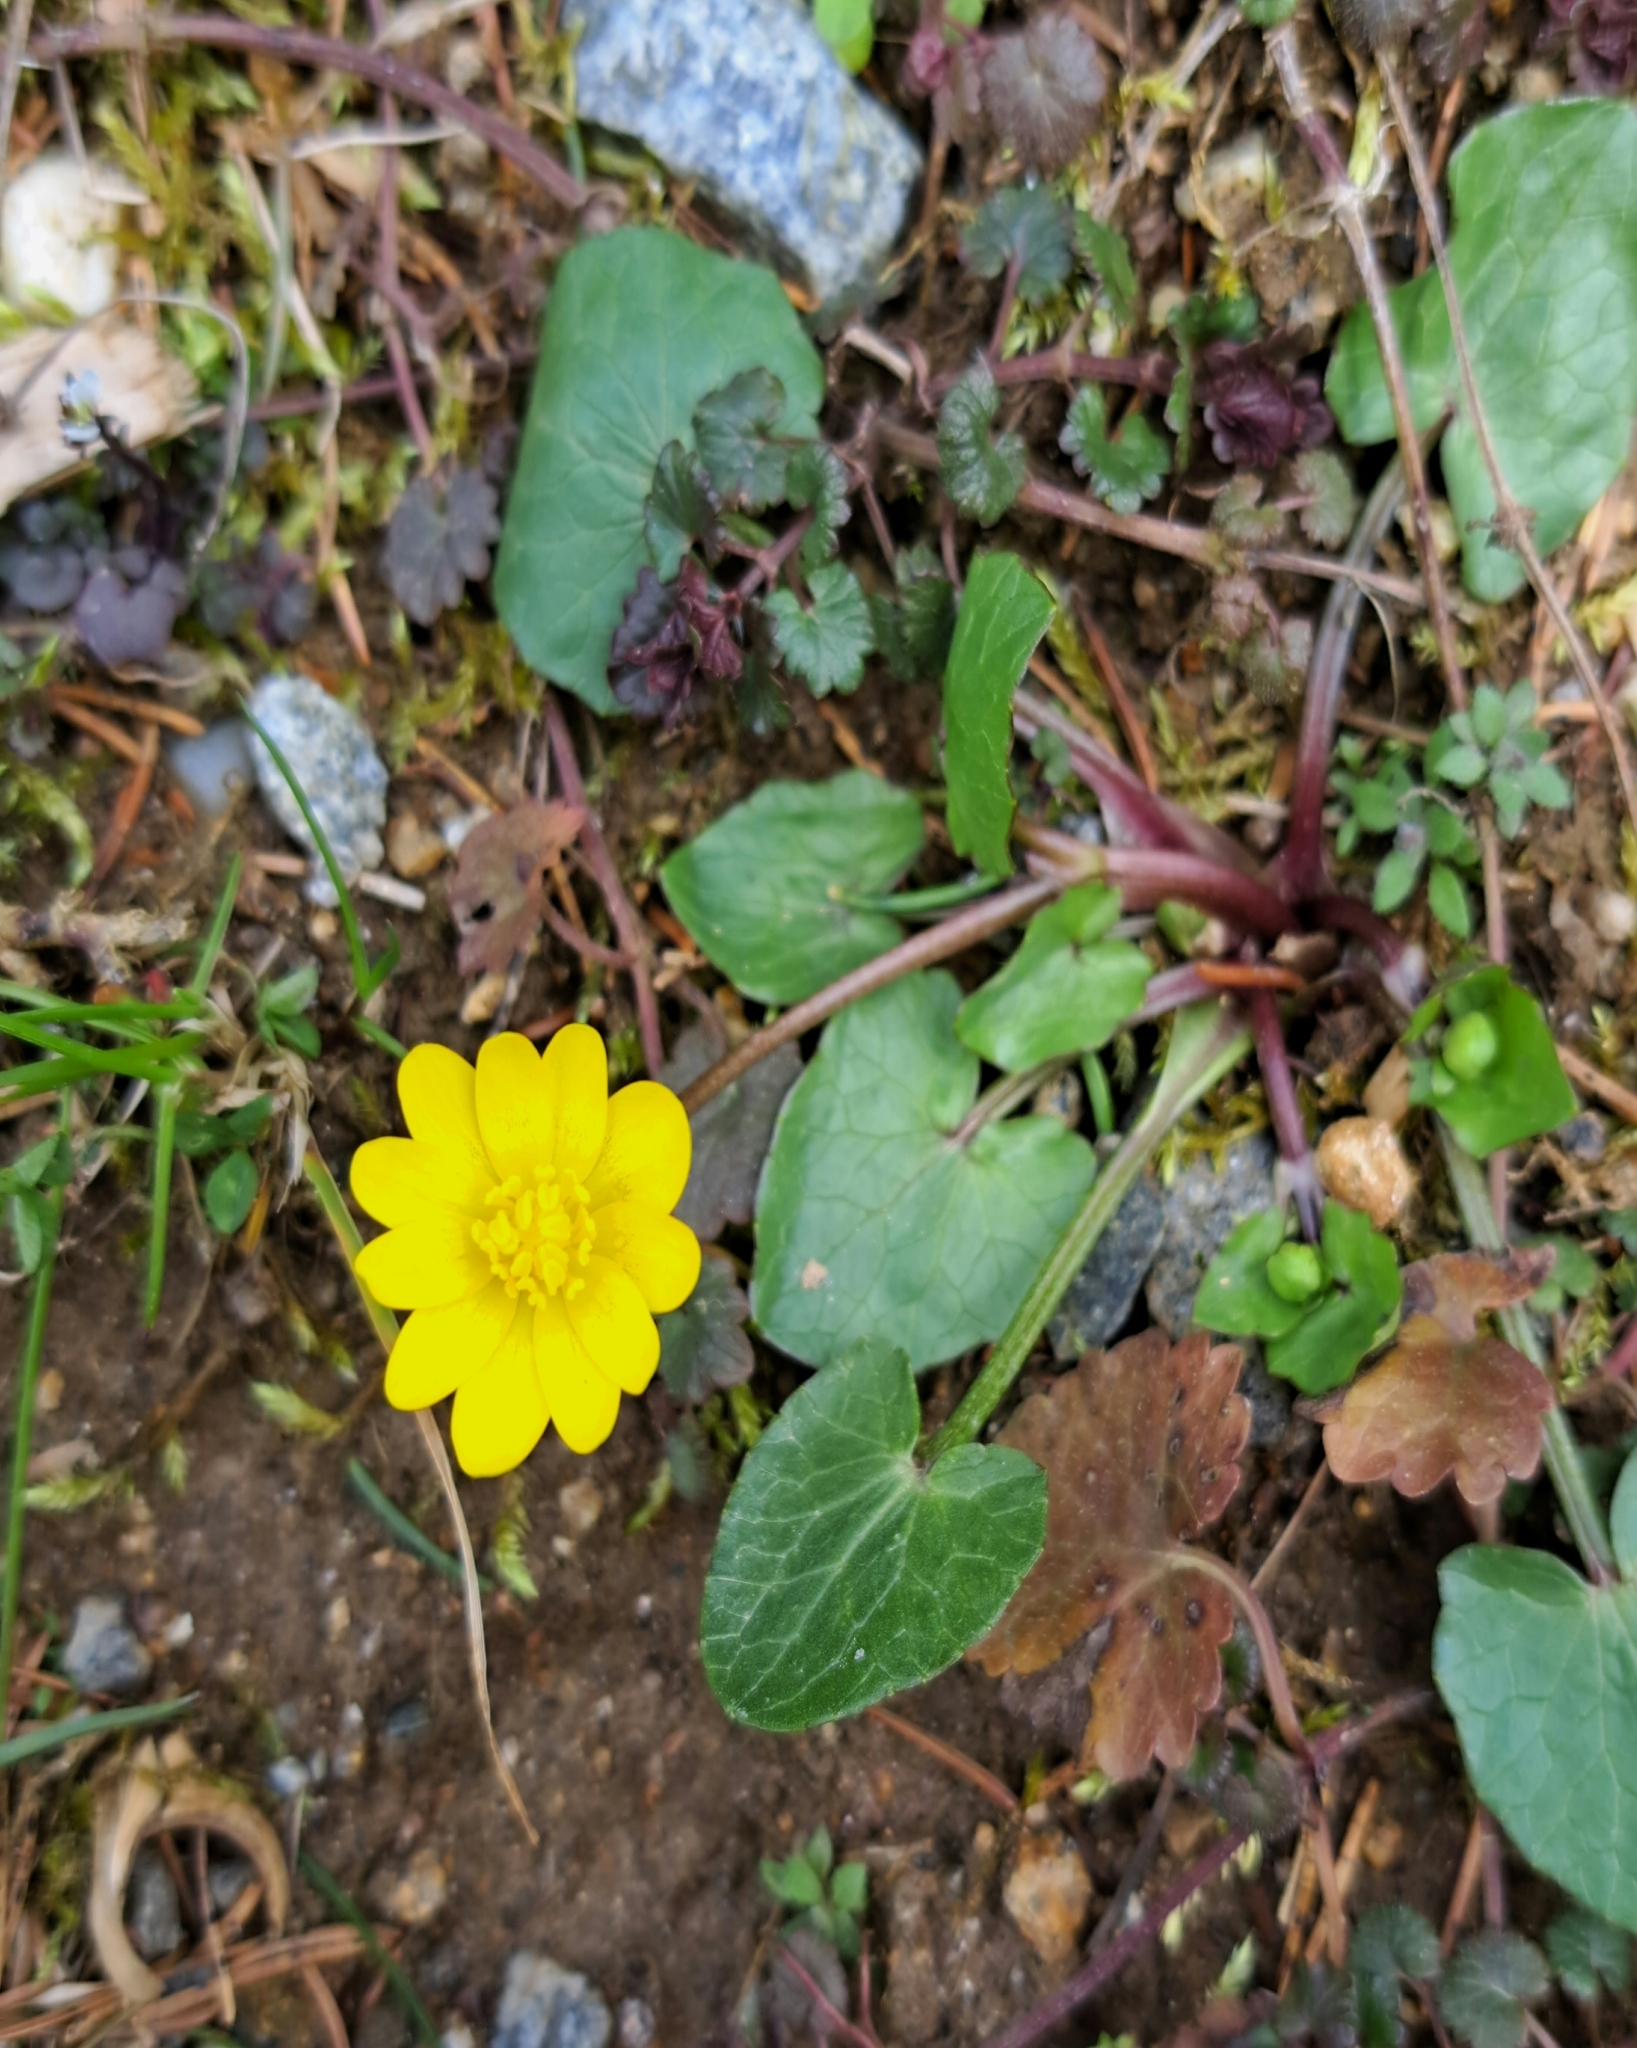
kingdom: Plantae
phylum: Tracheophyta
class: Magnoliopsida
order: Ranunculales
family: Ranunculaceae
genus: Ficaria
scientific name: Ficaria verna
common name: Lesser celandine
